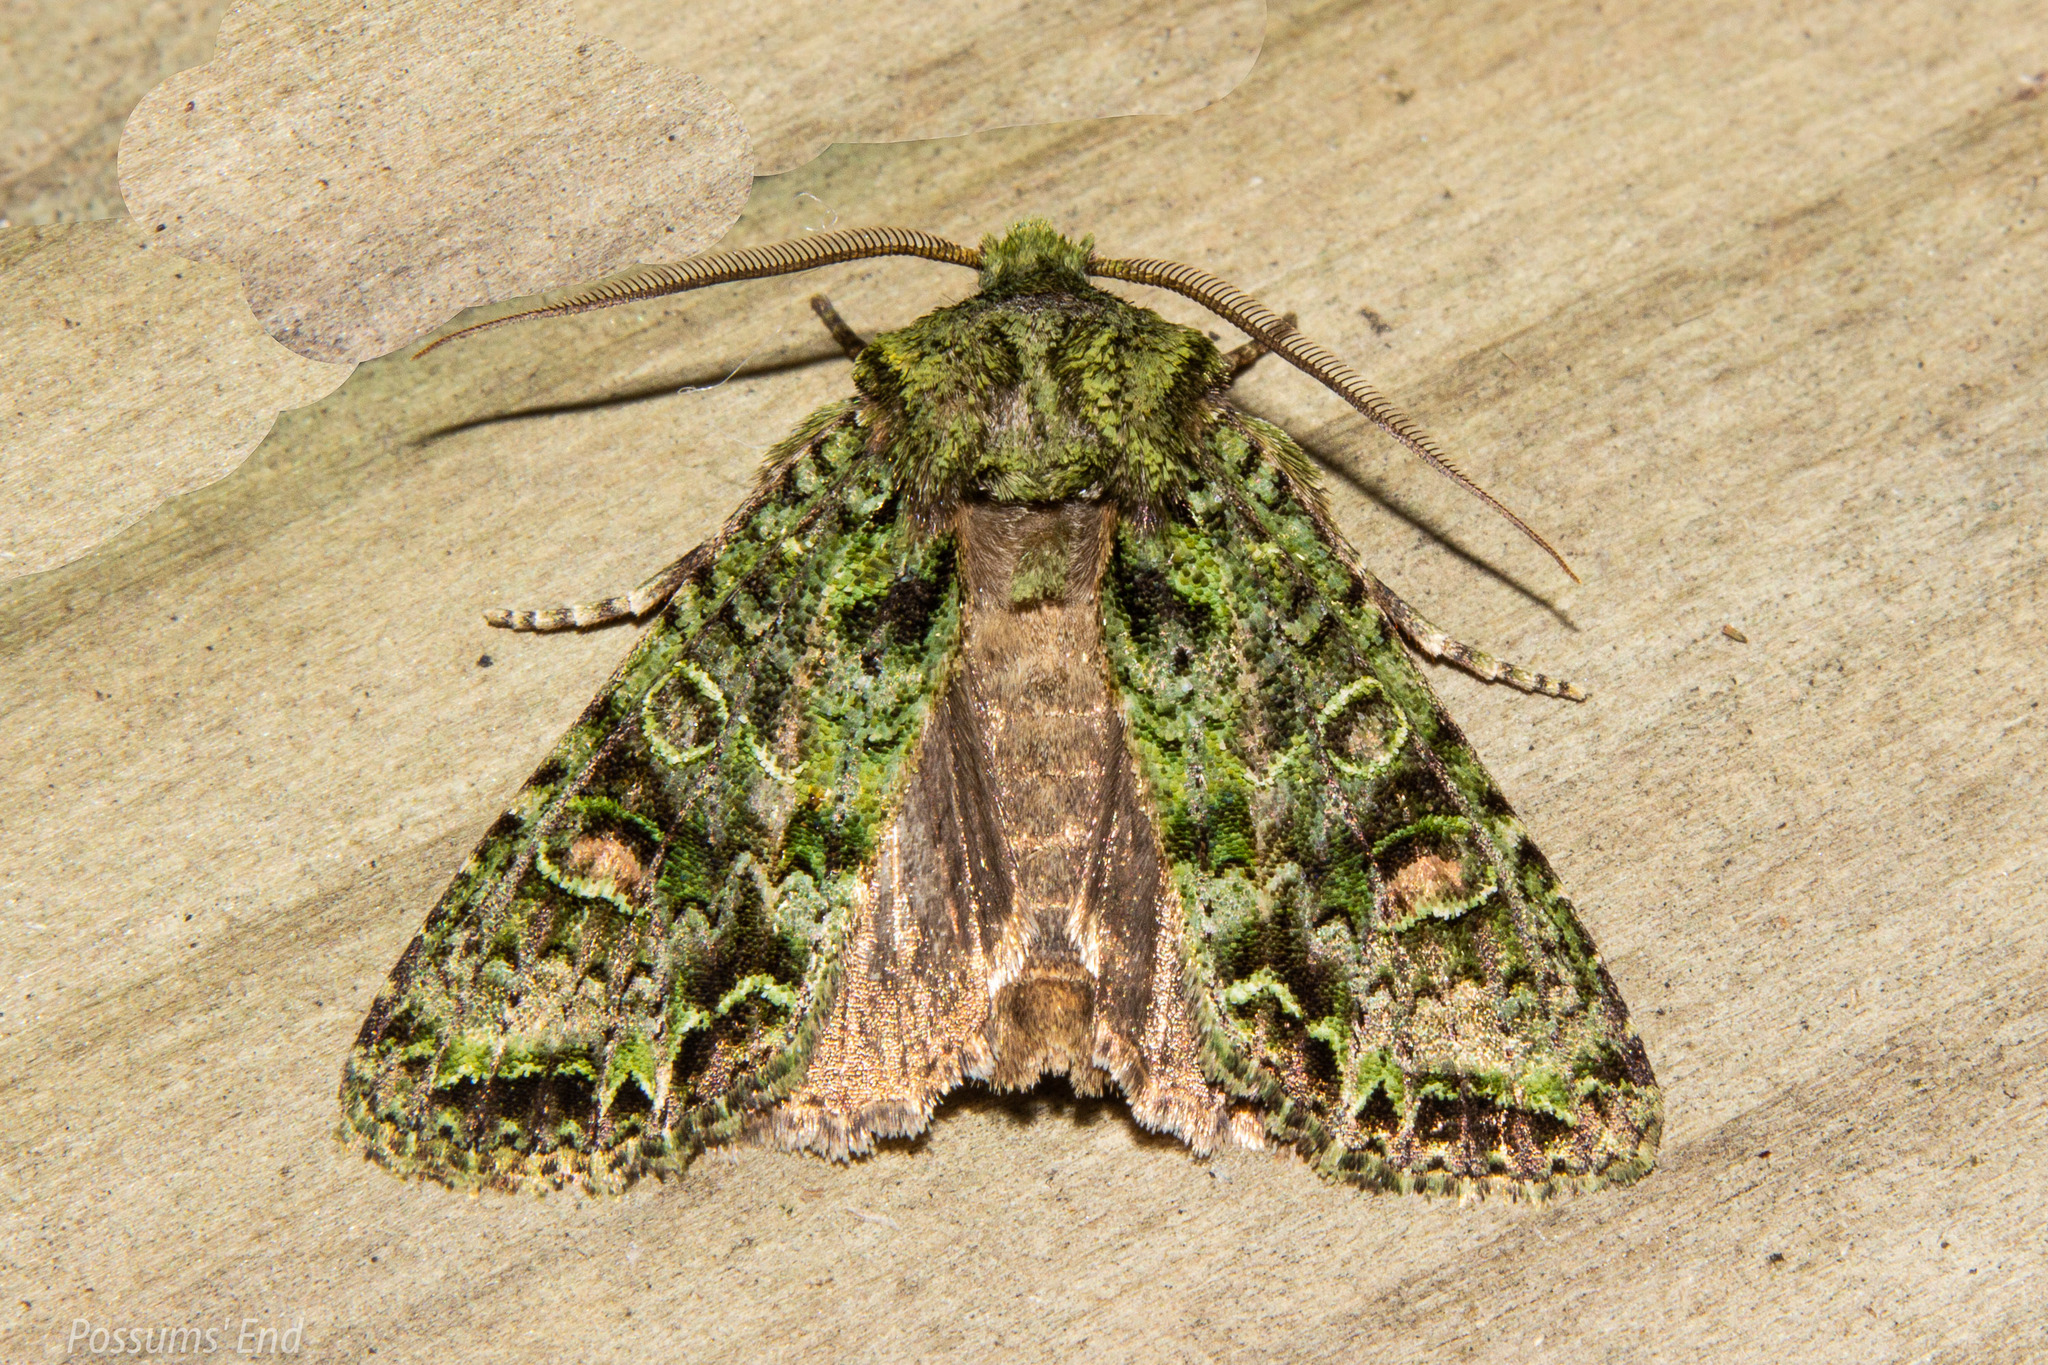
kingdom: Animalia
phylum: Arthropoda
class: Insecta
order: Lepidoptera
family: Noctuidae
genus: Ichneutica
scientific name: Ichneutica
